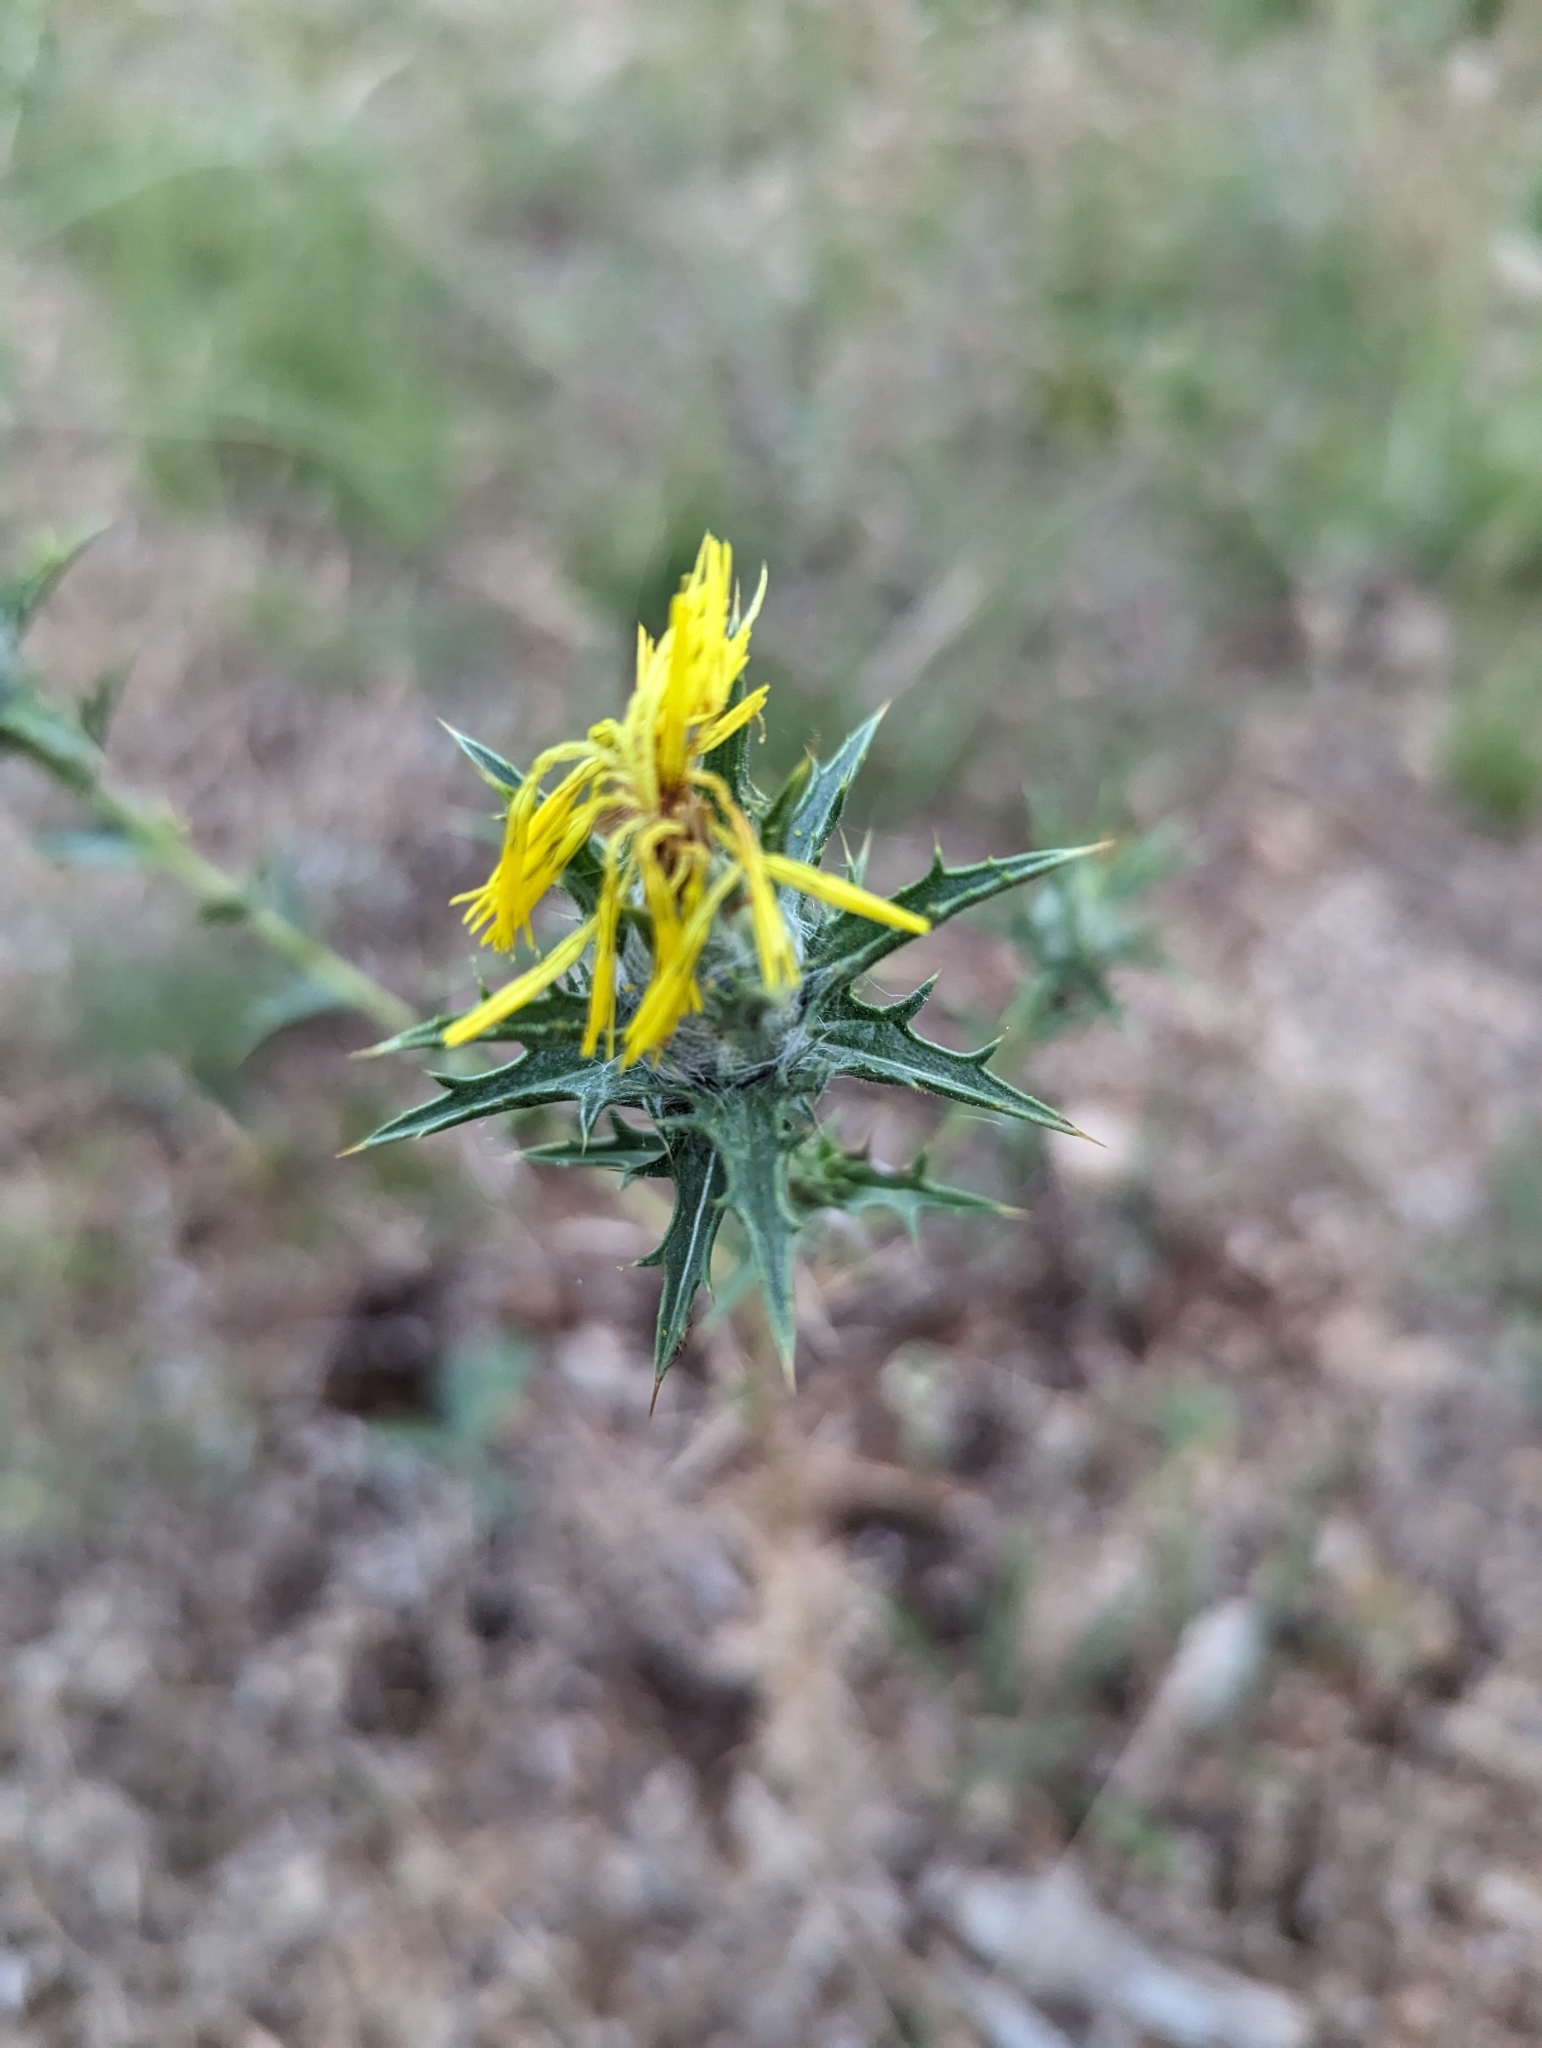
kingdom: Plantae
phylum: Tracheophyta
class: Magnoliopsida
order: Asterales
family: Asteraceae
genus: Carthamus
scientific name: Carthamus lanatus
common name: Downy safflower
